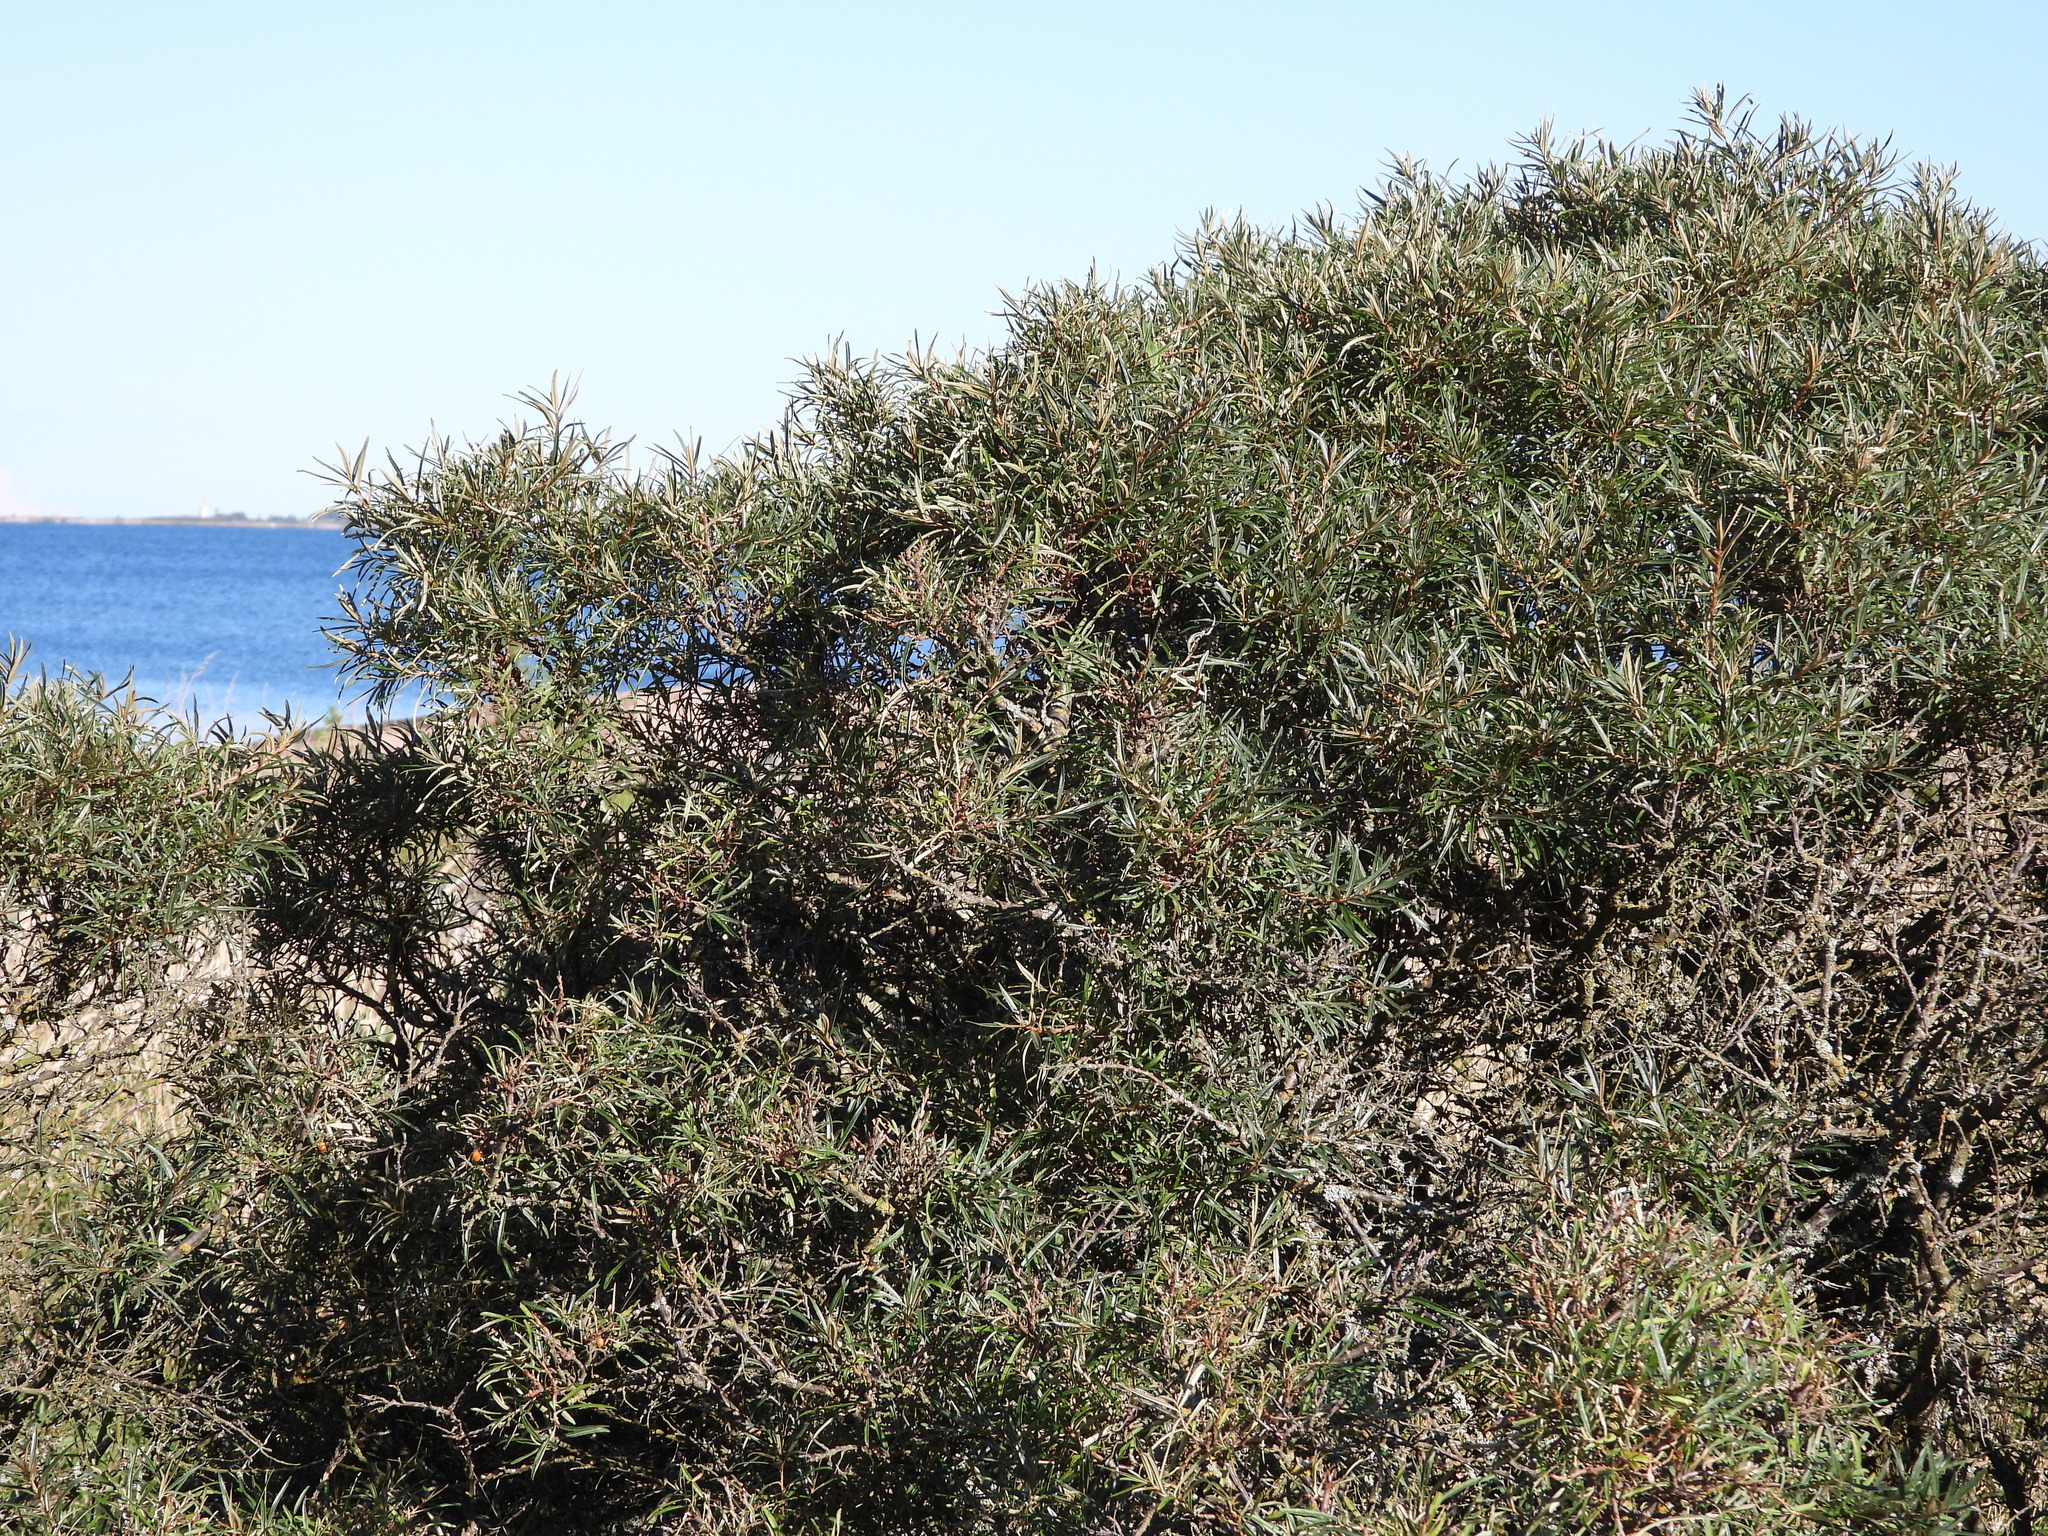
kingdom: Plantae
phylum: Tracheophyta
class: Magnoliopsida
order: Rosales
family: Elaeagnaceae
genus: Hippophae
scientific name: Hippophae rhamnoides
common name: Sea-buckthorn
